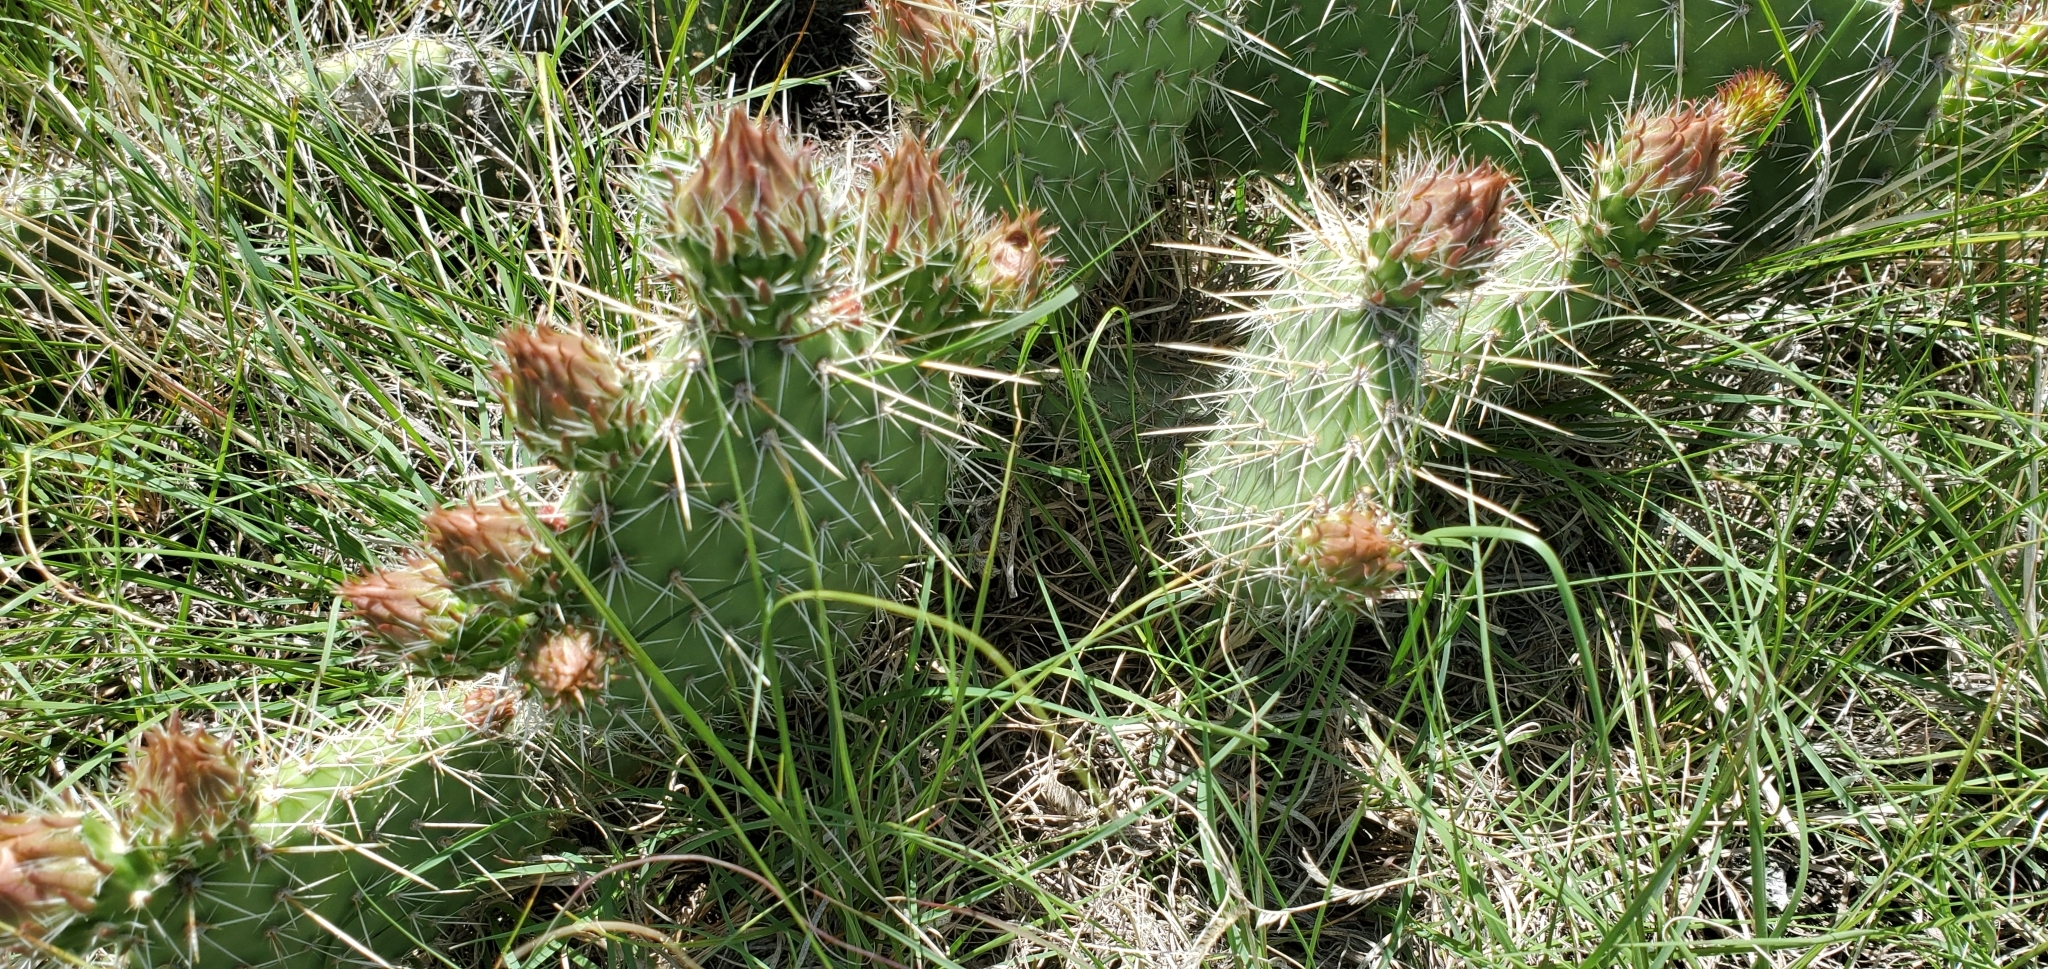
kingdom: Plantae
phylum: Tracheophyta
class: Magnoliopsida
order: Caryophyllales
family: Cactaceae
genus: Opuntia
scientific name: Opuntia polyacantha
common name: Plains prickly-pear
